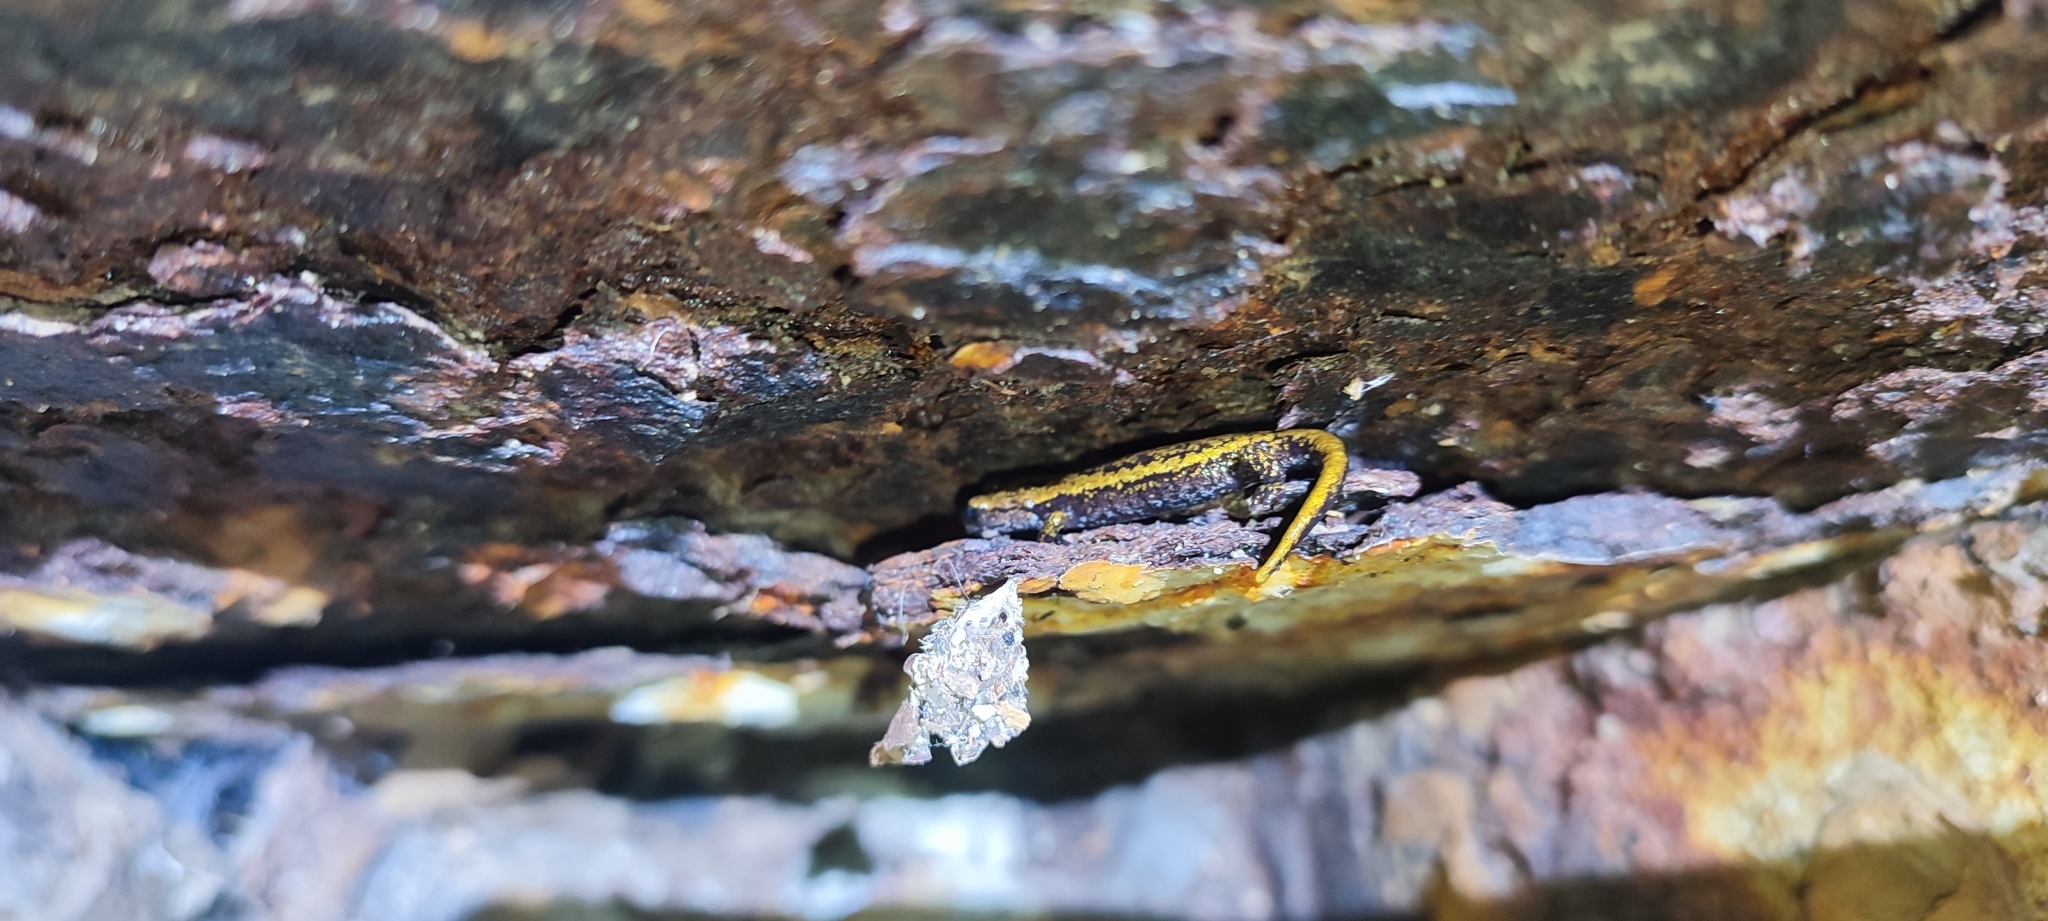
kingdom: Animalia
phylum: Chordata
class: Amphibia
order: Caudata
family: Plethodontidae
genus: Speleomantes
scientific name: Speleomantes strinatii
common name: French cave salamander
